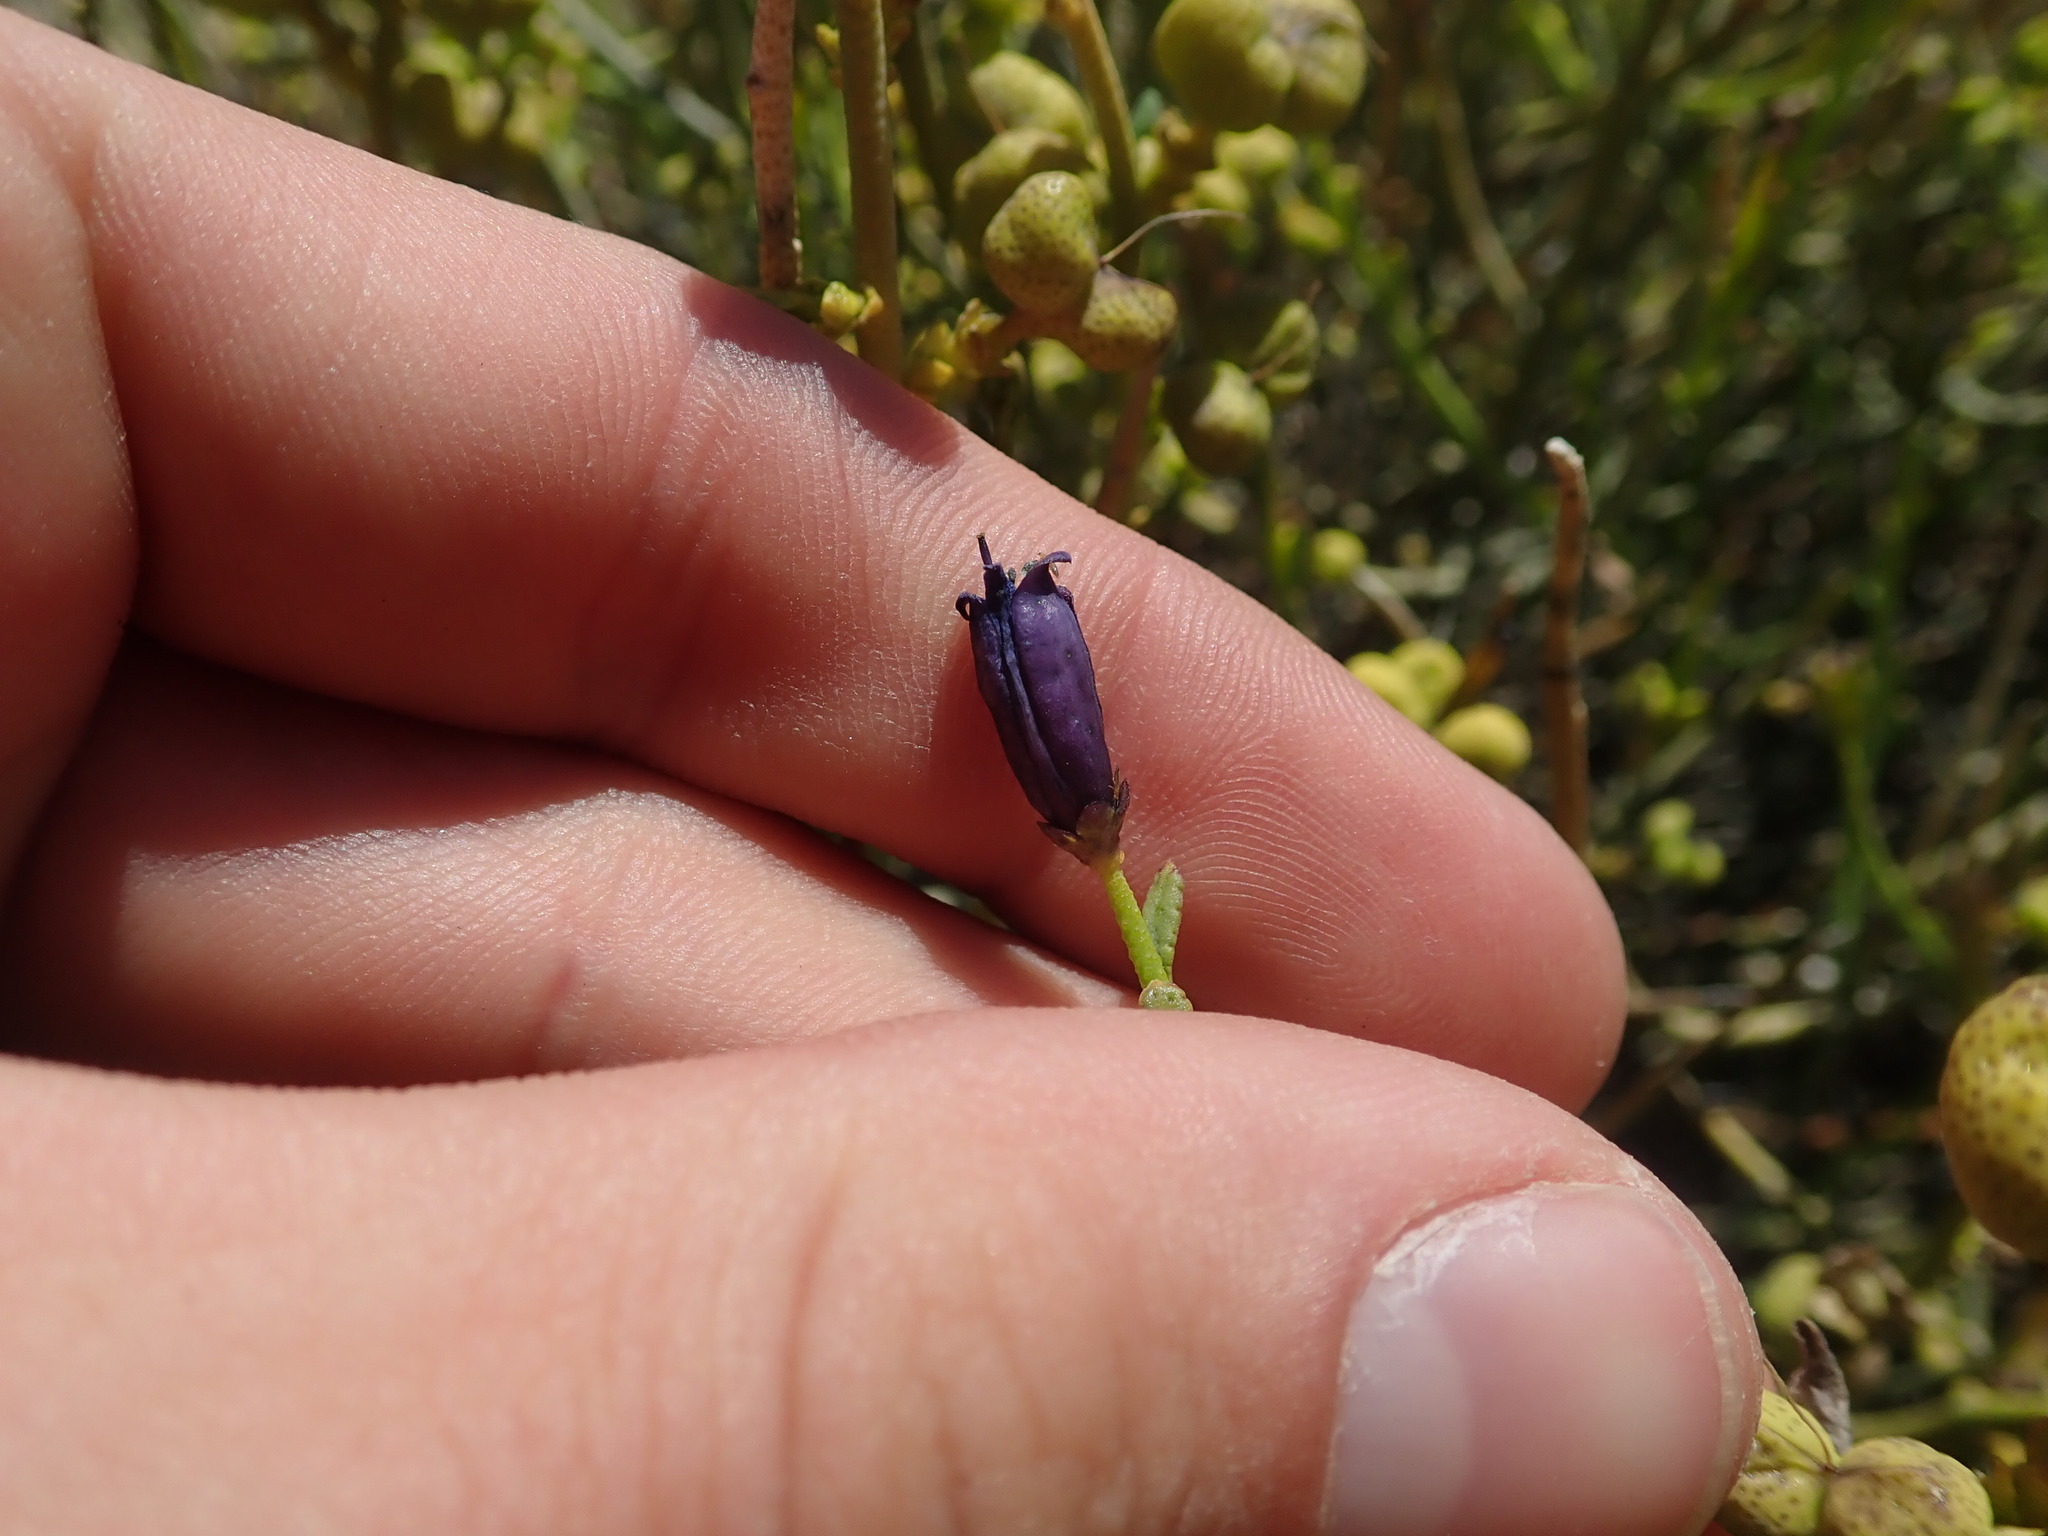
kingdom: Plantae
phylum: Tracheophyta
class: Magnoliopsida
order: Sapindales
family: Rutaceae
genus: Thamnosma
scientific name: Thamnosma montana
